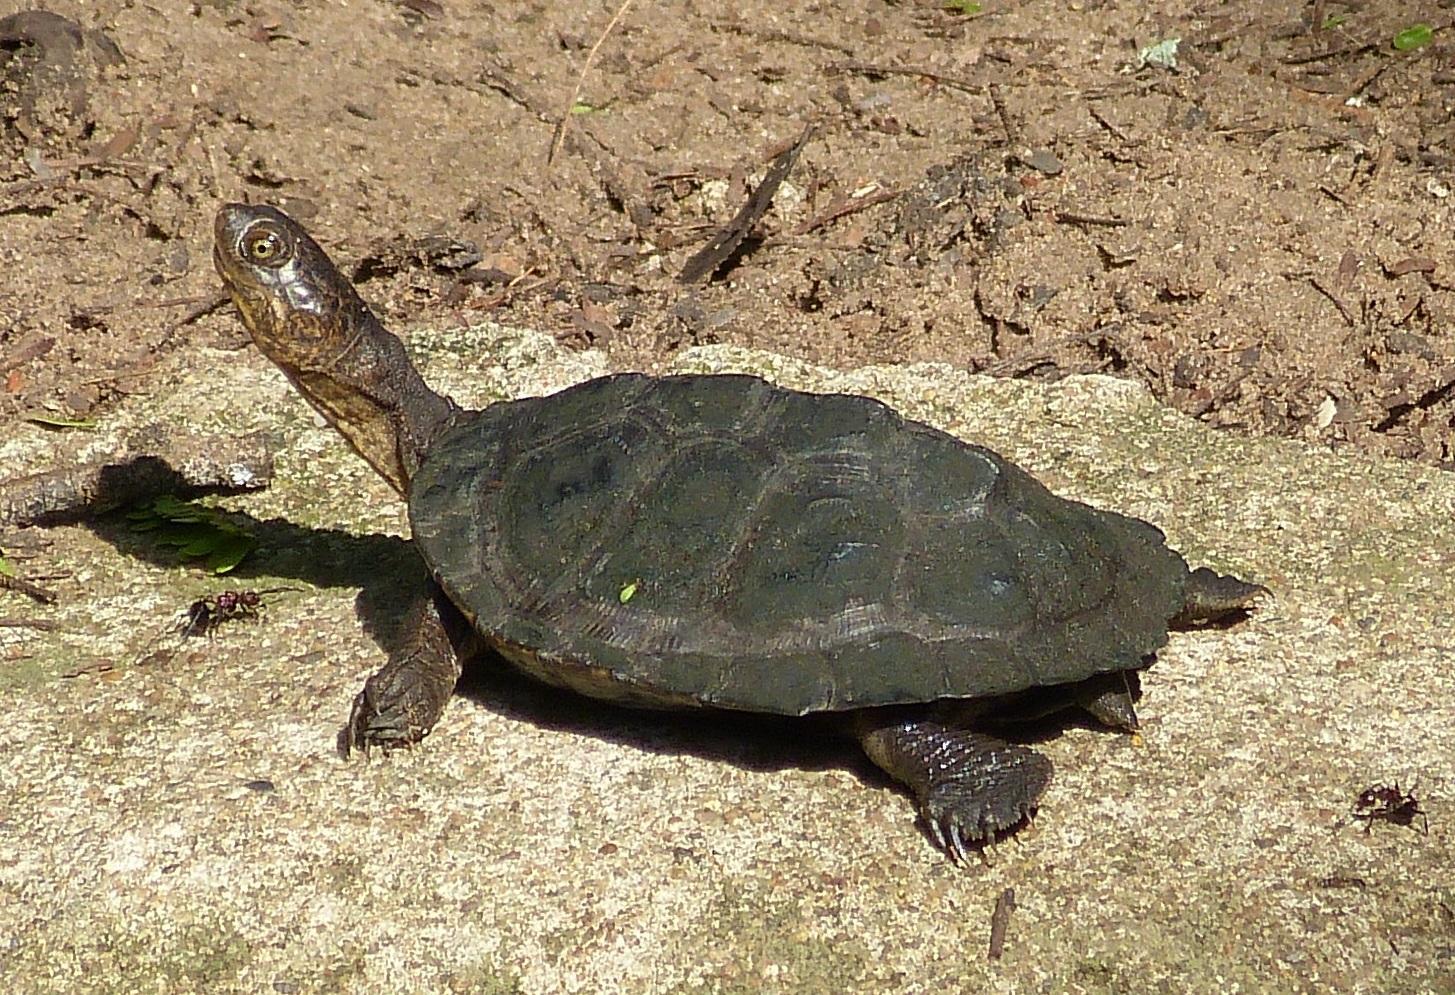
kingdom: Animalia
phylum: Chordata
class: Testudines
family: Pelomedusidae
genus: Pelusios
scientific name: Pelusios sinuatus
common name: Serrated hinged terrapin
